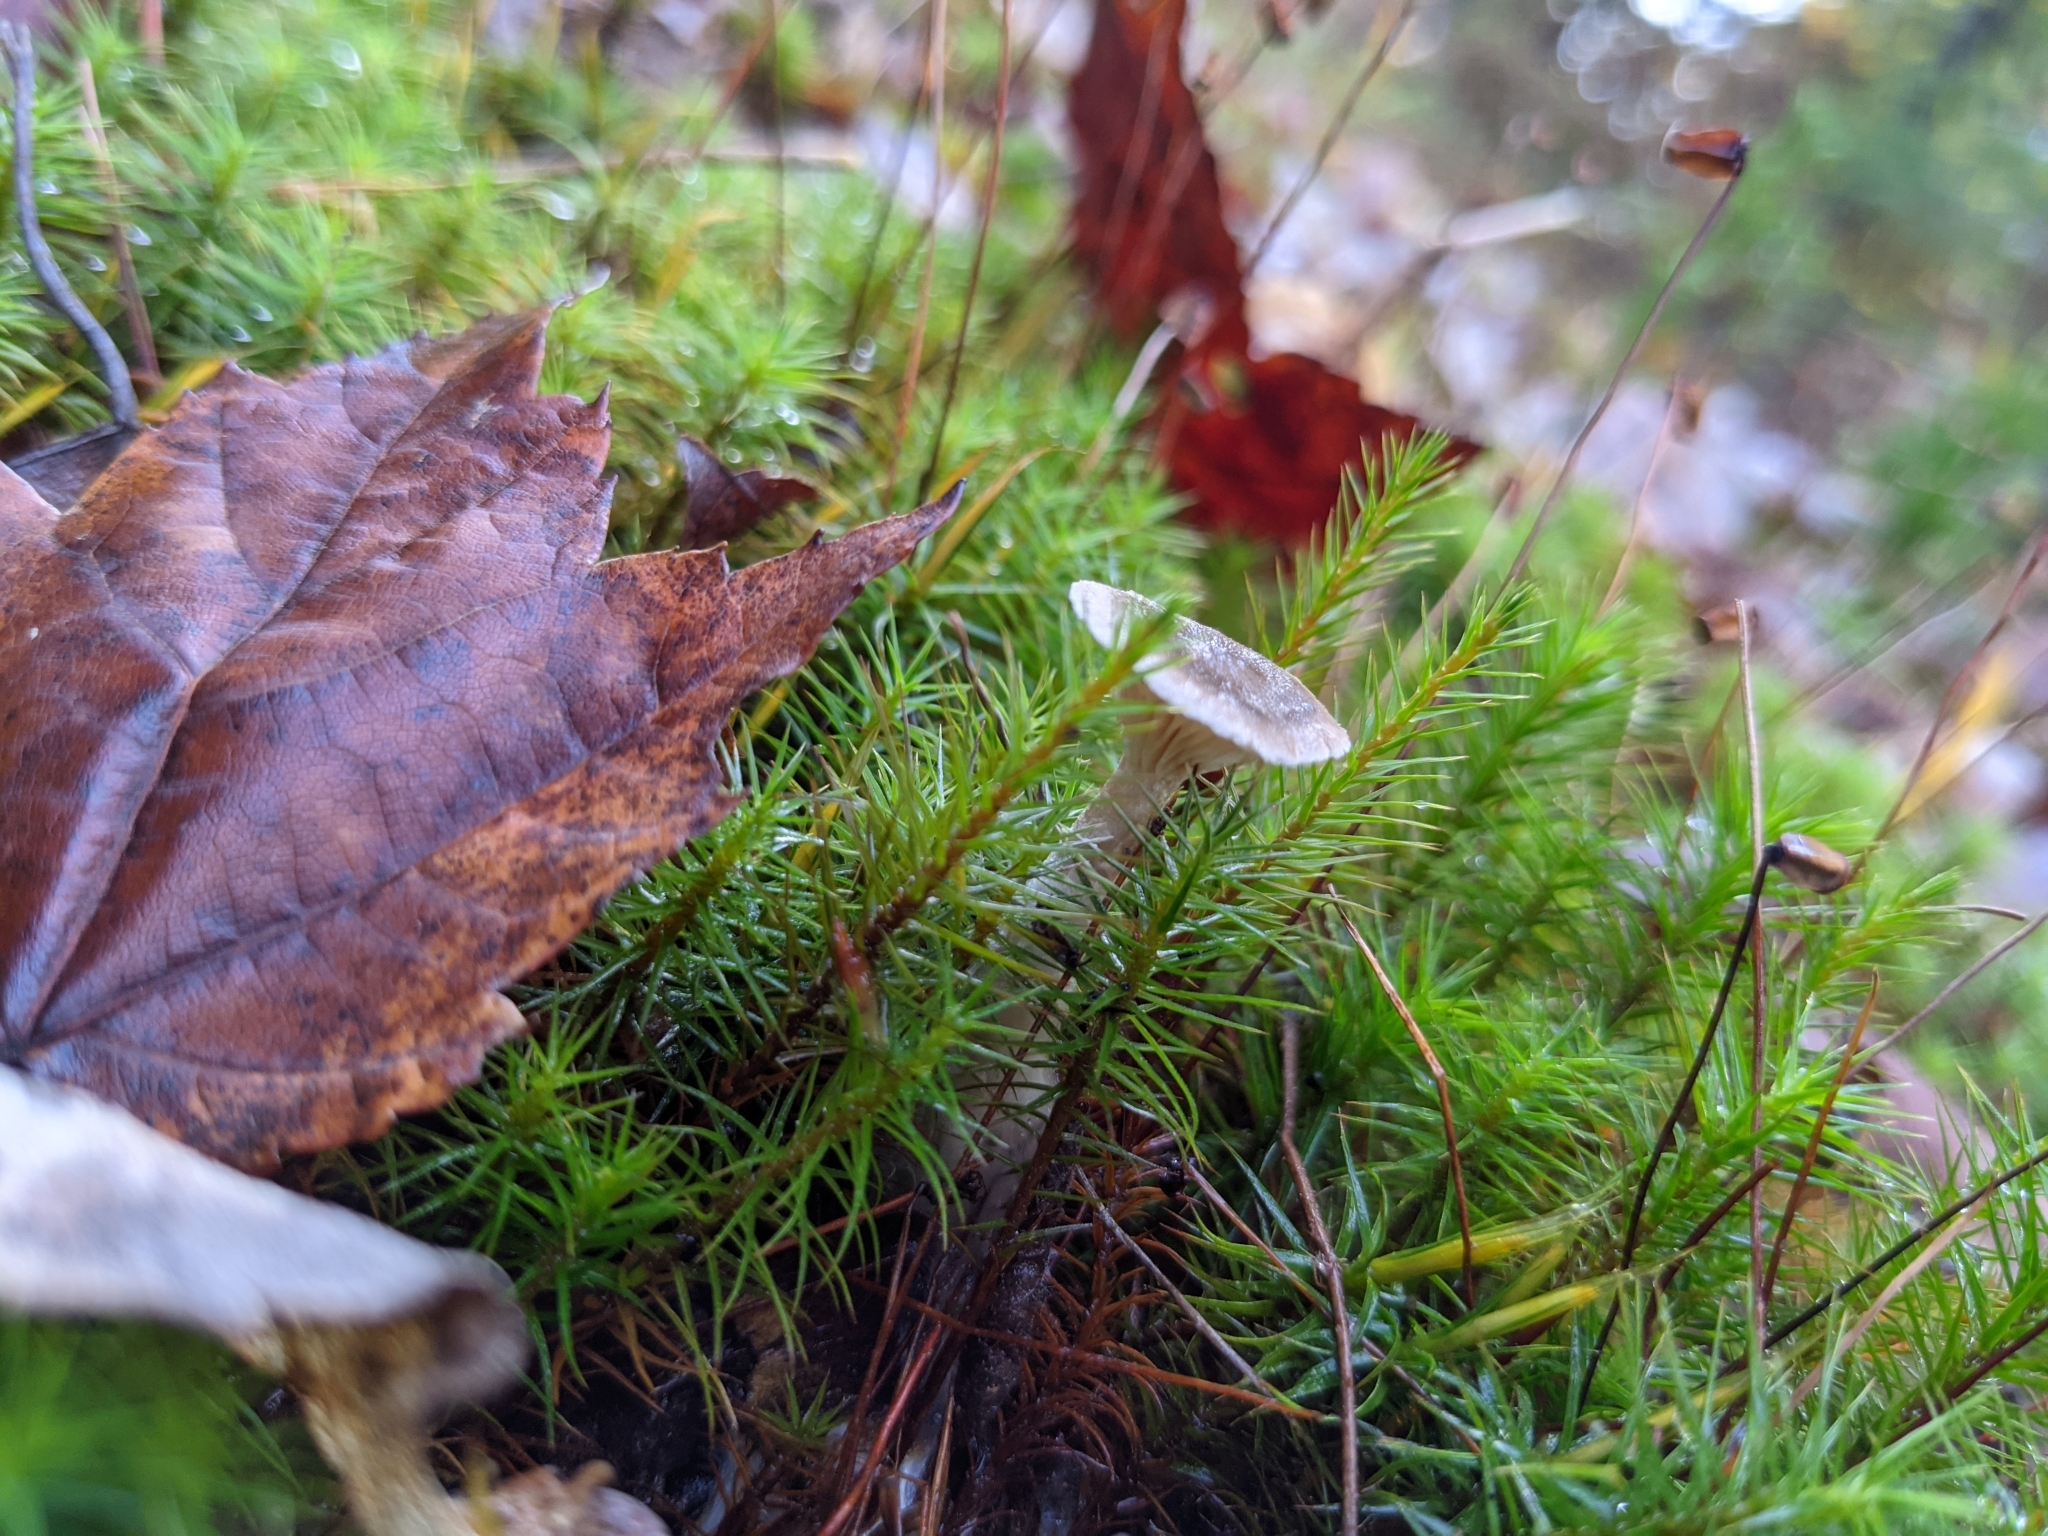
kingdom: Fungi
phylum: Basidiomycota
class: Agaricomycetes
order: Agaricales
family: Hygrophoraceae
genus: Cantharellula
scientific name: Cantharellula umbonata
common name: The humpback
